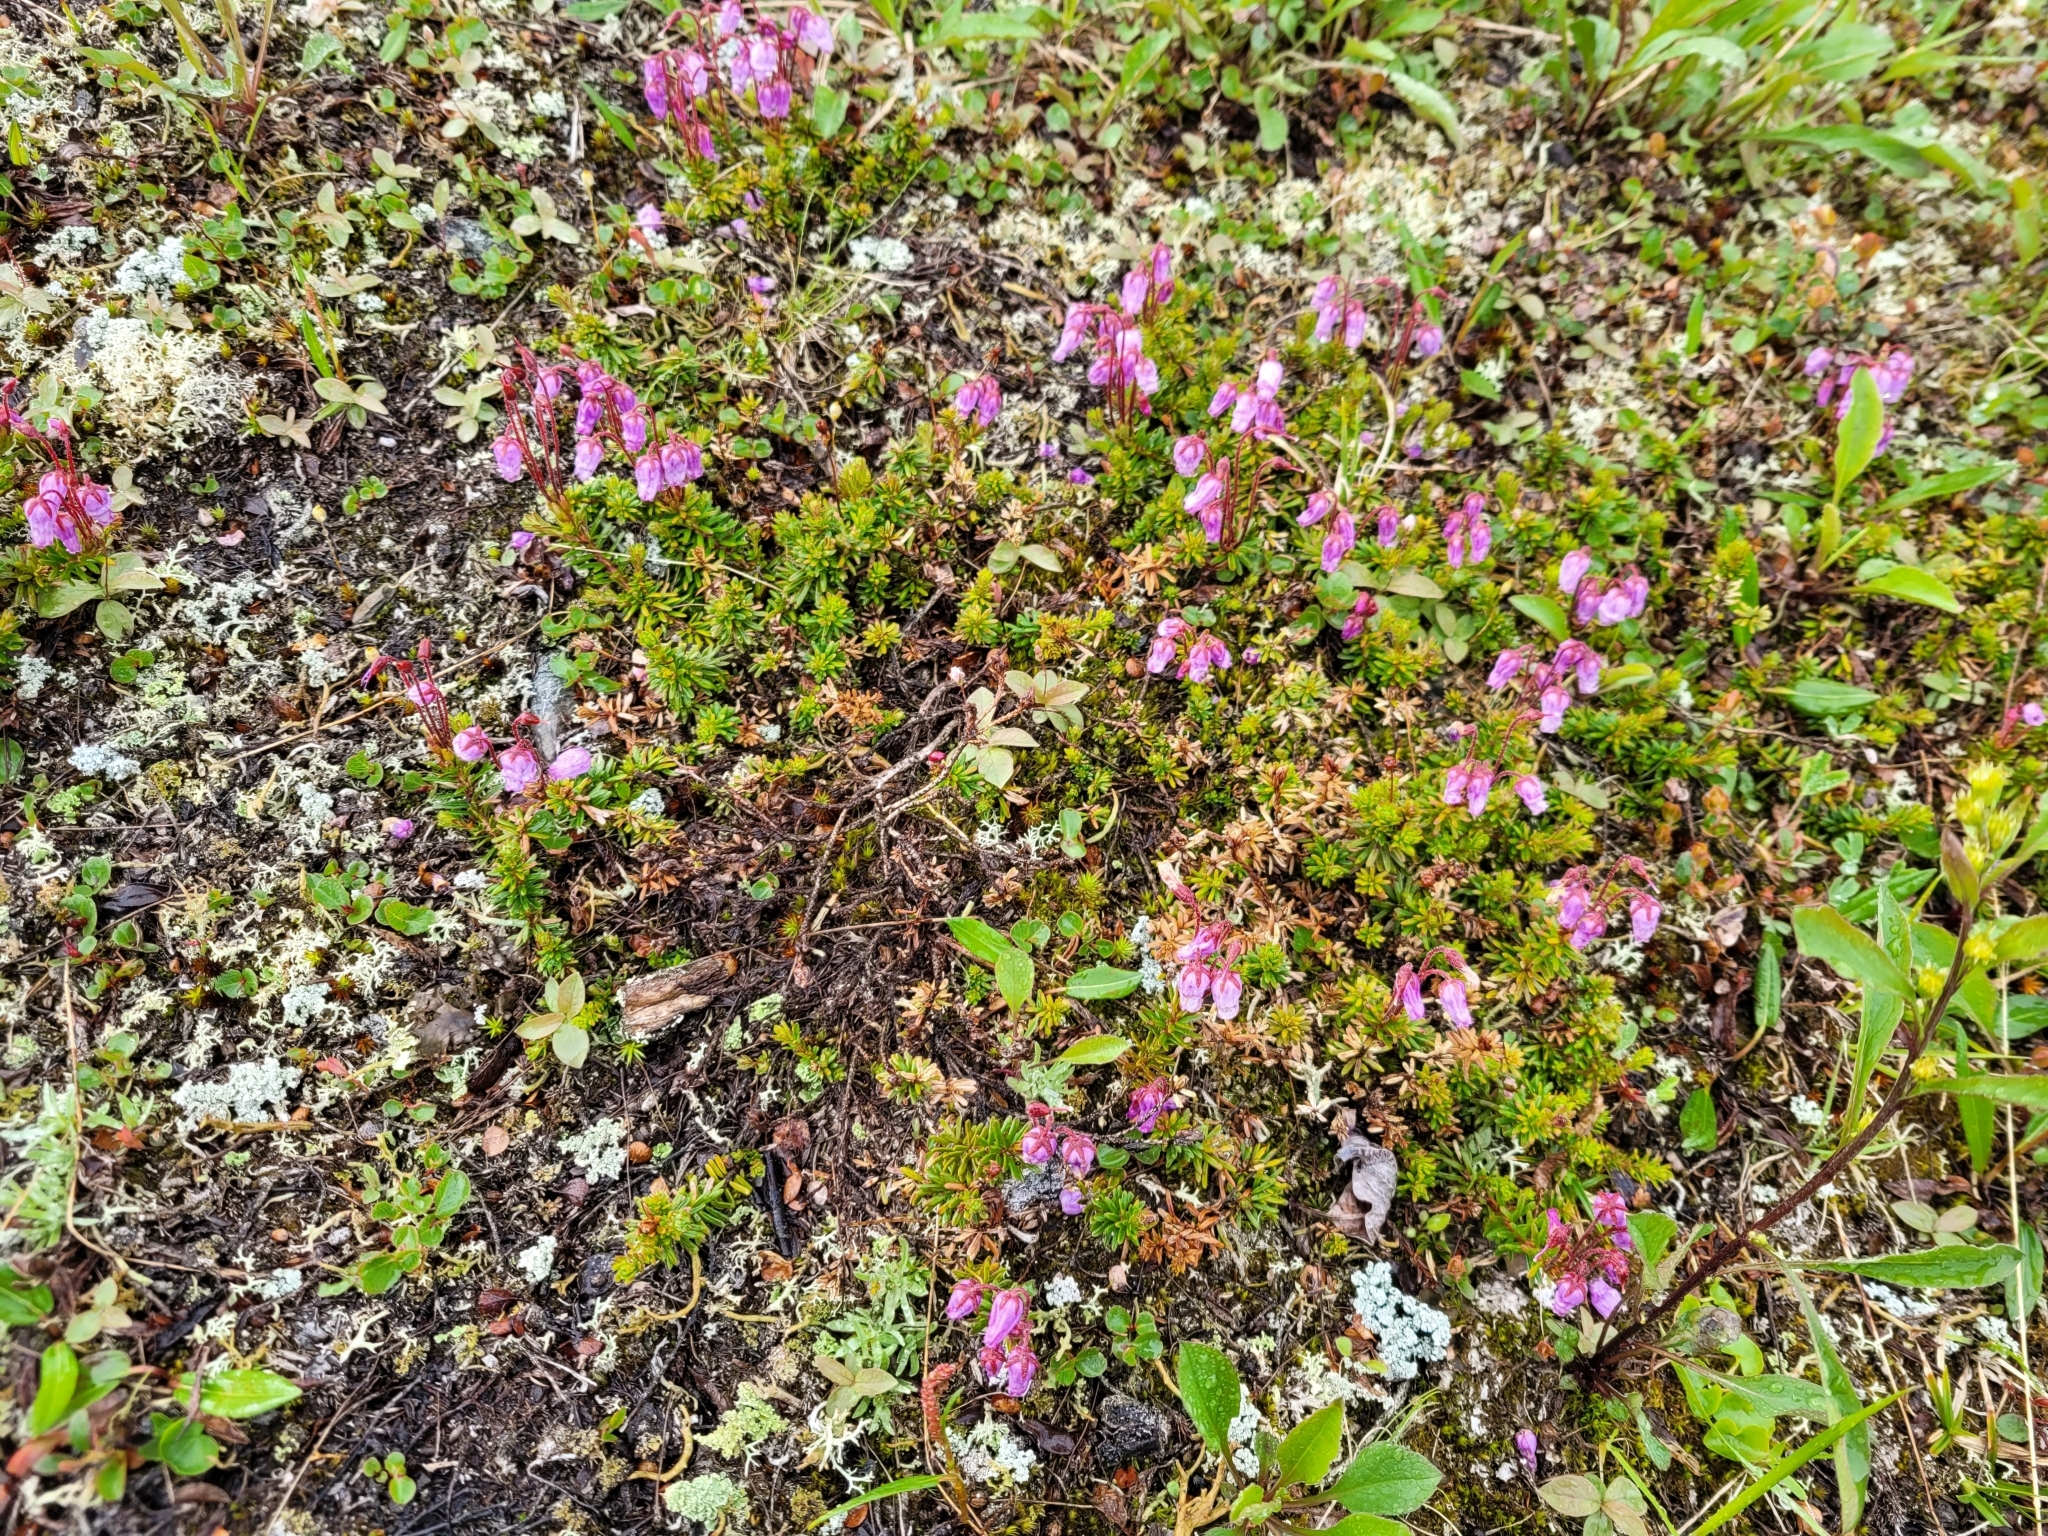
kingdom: Plantae
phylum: Tracheophyta
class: Magnoliopsida
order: Ericales
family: Ericaceae
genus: Phyllodoce
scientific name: Phyllodoce caerulea
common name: Blue heath
